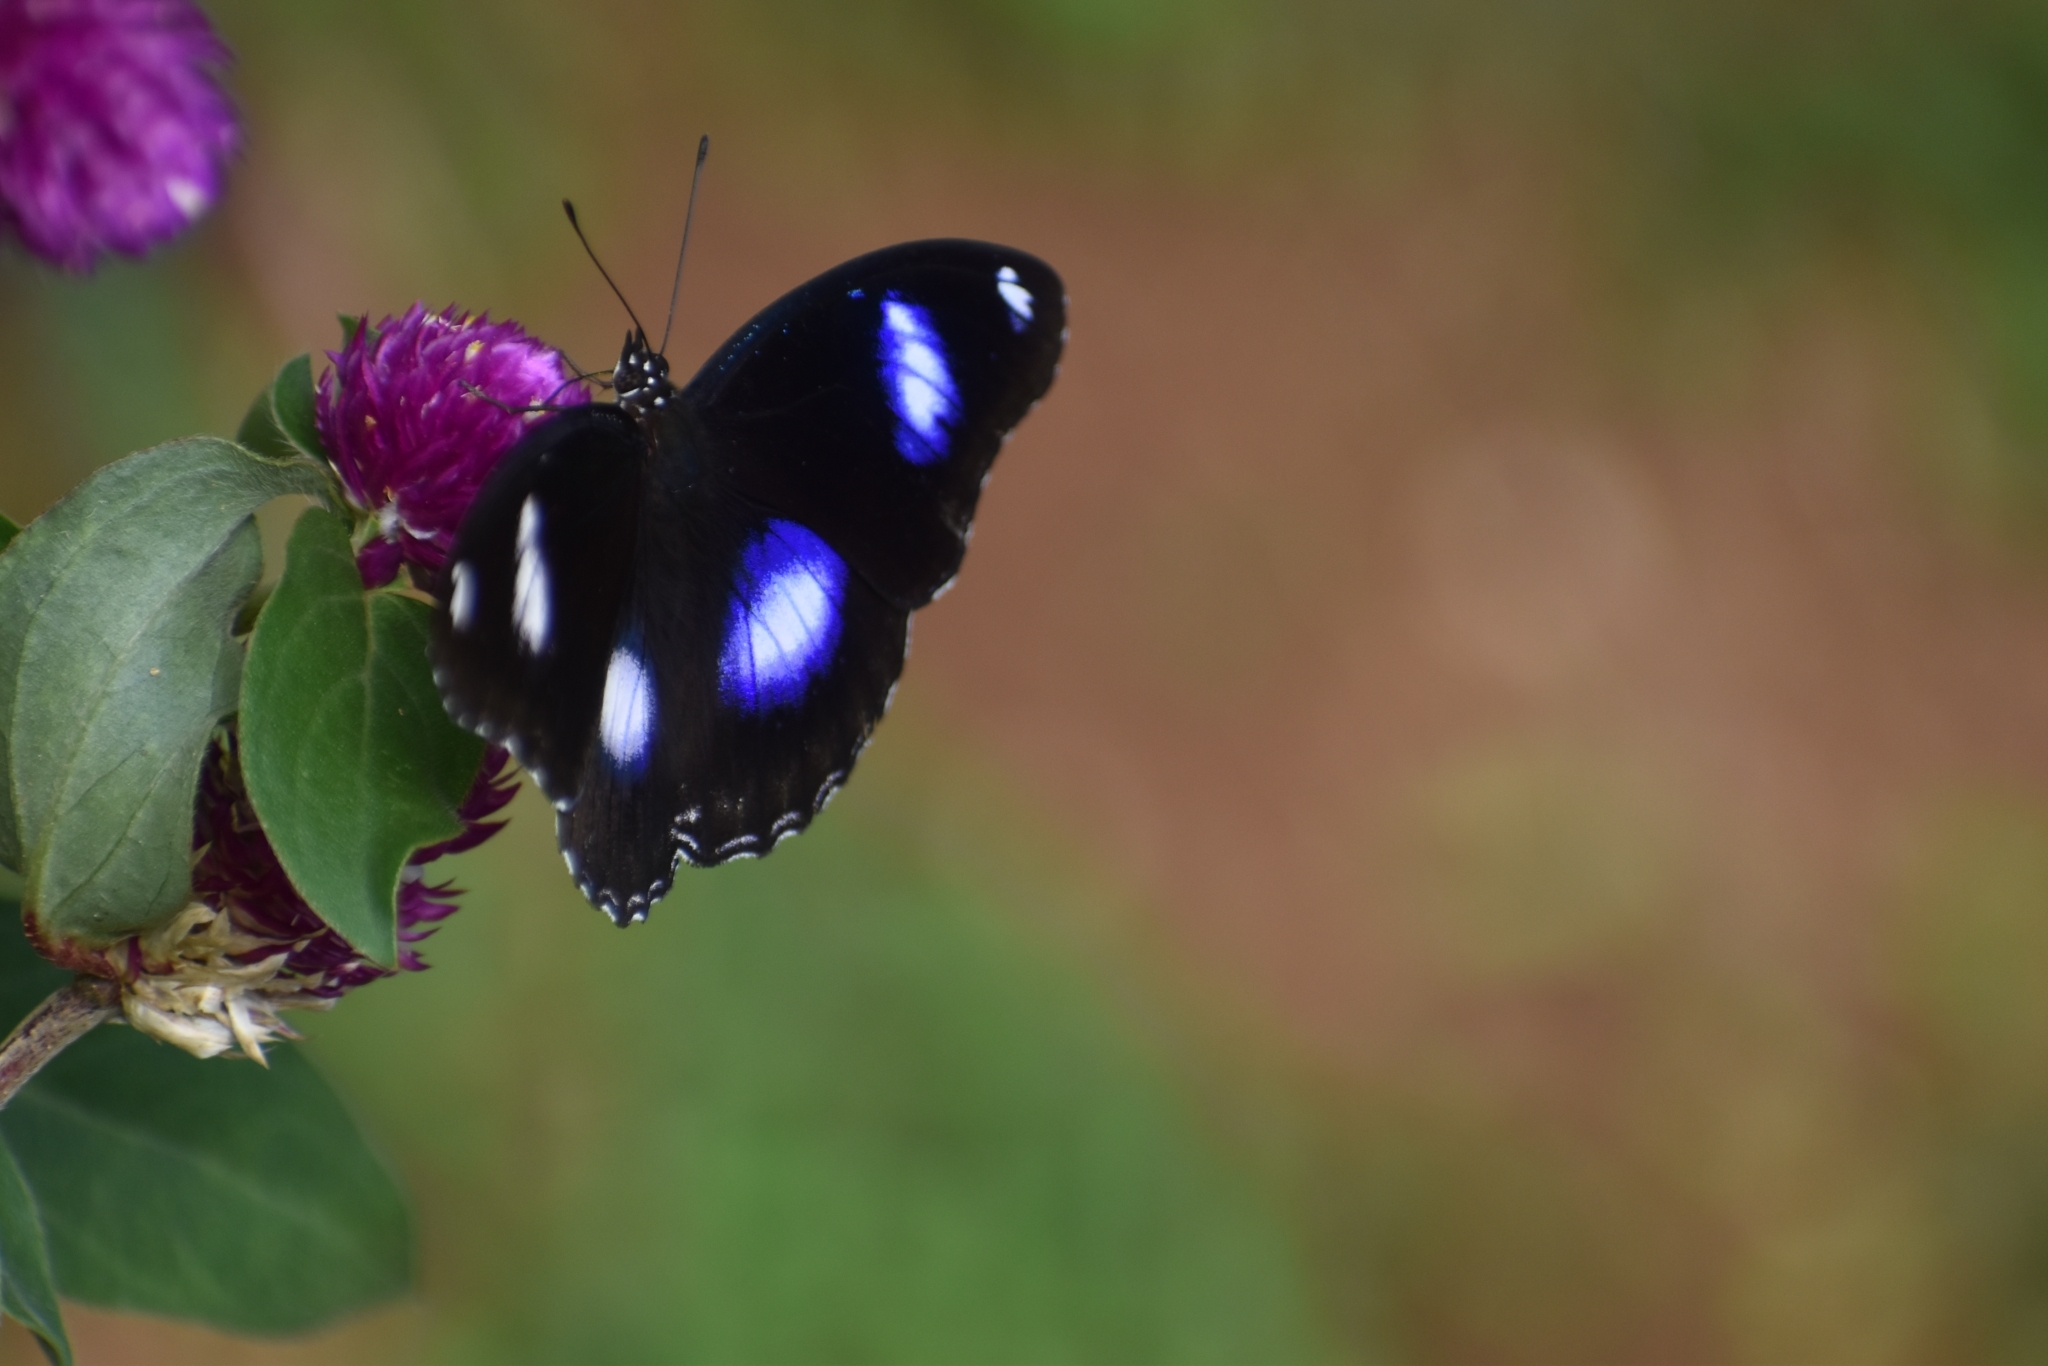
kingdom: Animalia
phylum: Arthropoda
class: Insecta
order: Lepidoptera
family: Nymphalidae
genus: Hypolimnas
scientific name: Hypolimnas bolina
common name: Great eggfly
